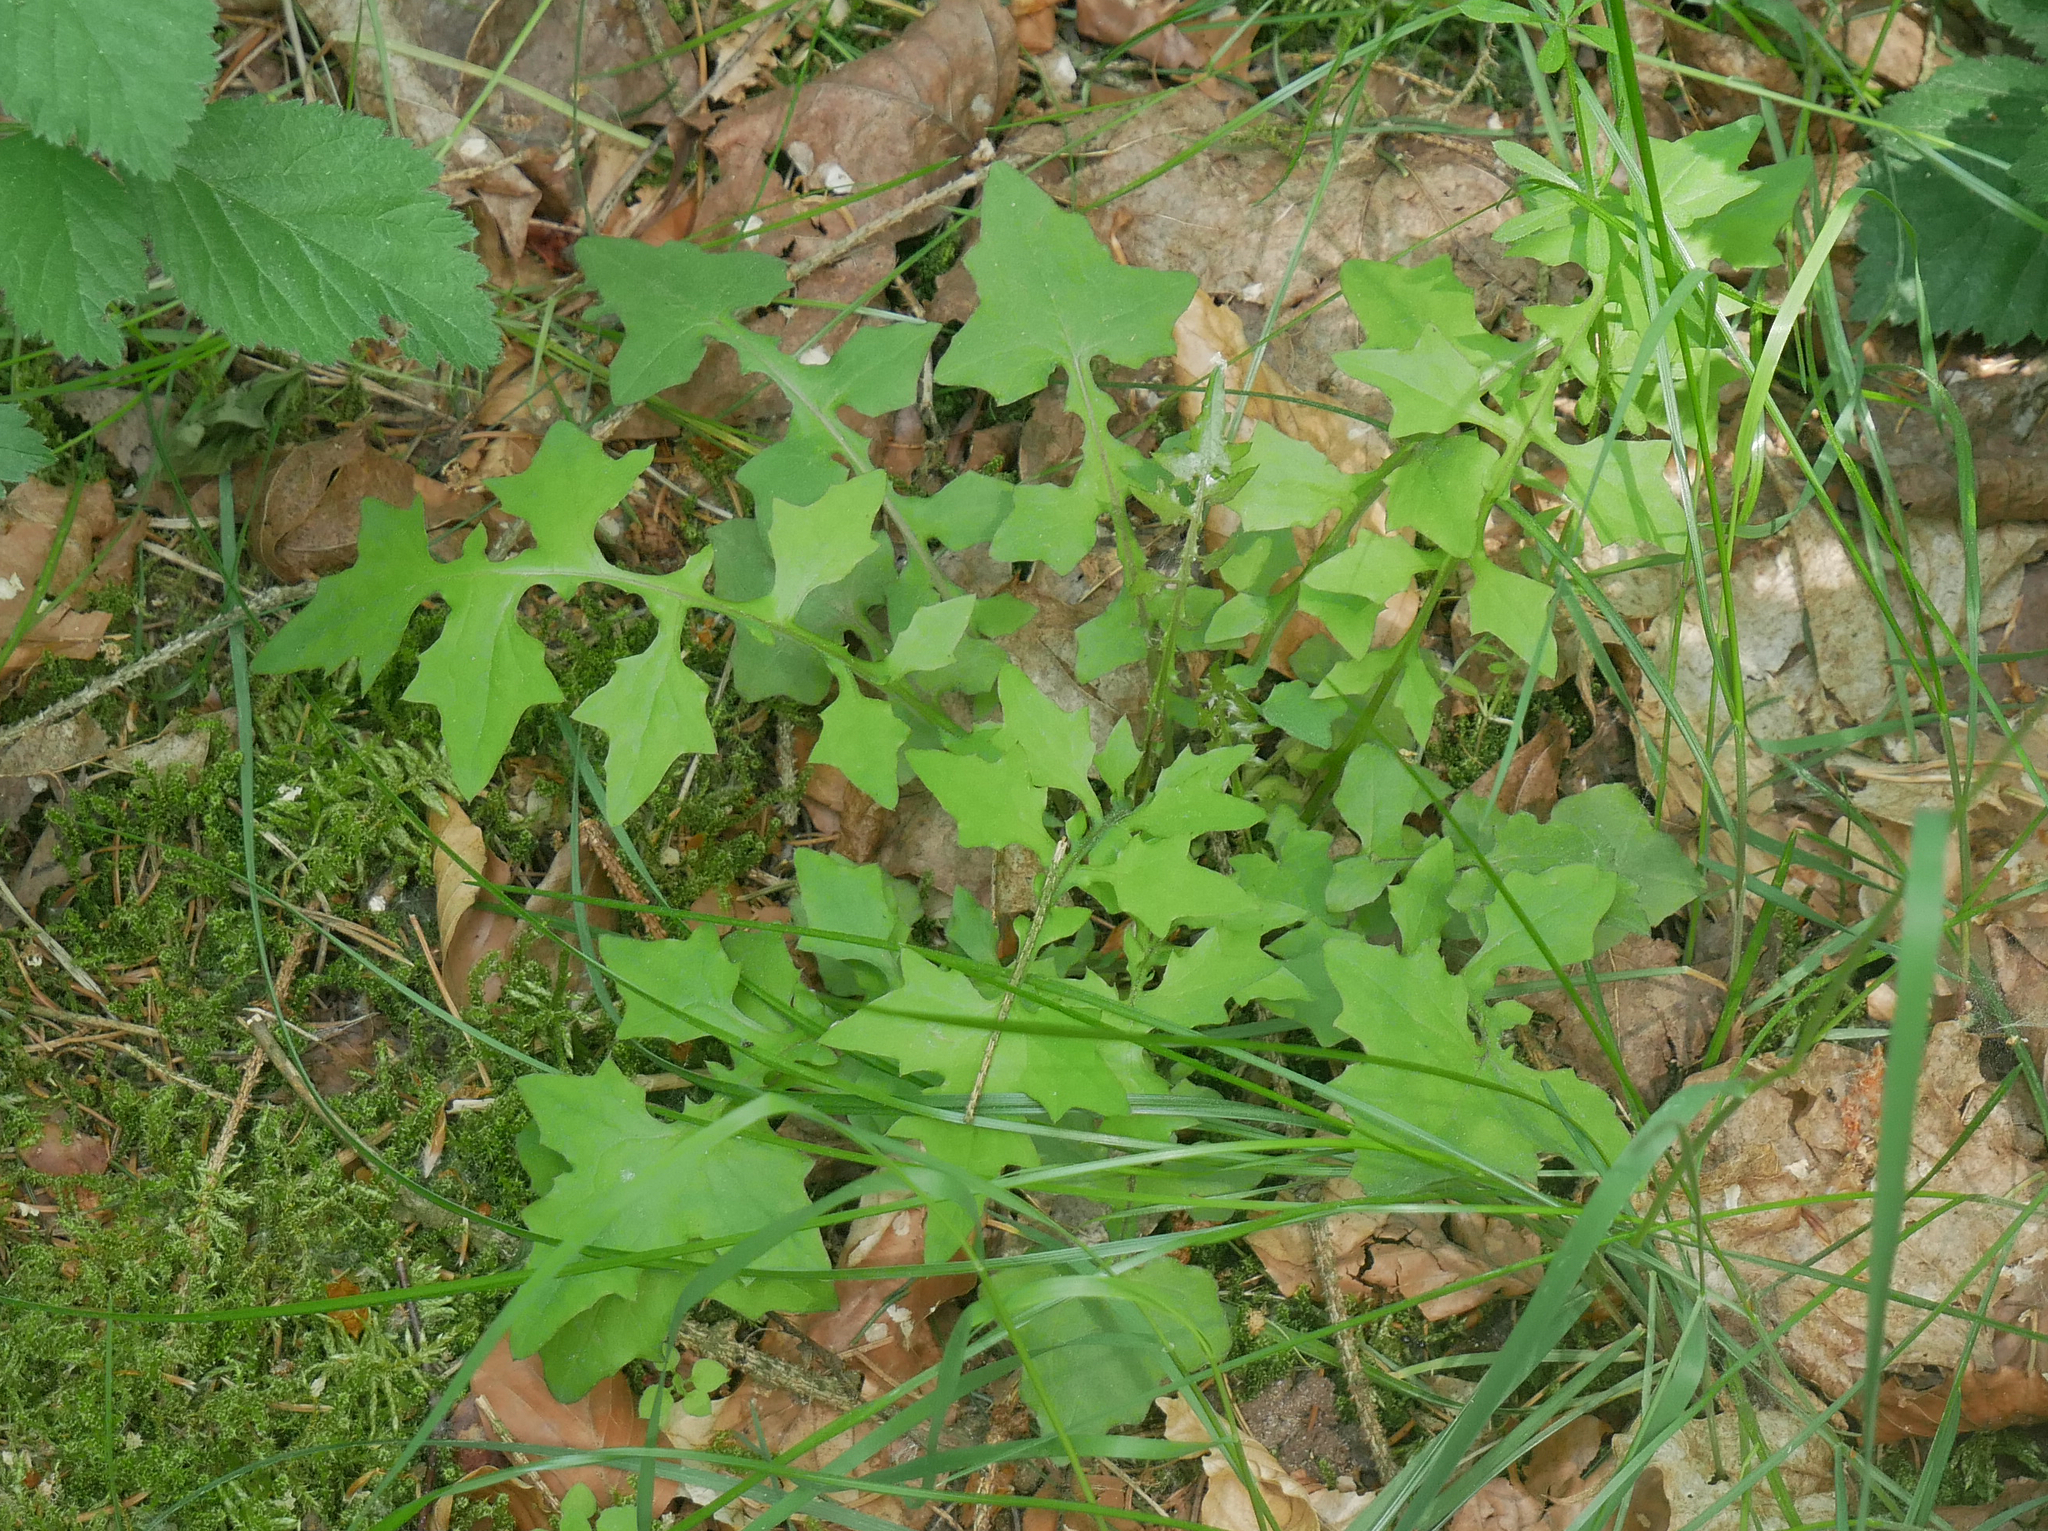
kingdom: Plantae
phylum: Tracheophyta
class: Magnoliopsida
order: Asterales
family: Asteraceae
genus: Mycelis
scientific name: Mycelis muralis
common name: Wall lettuce
